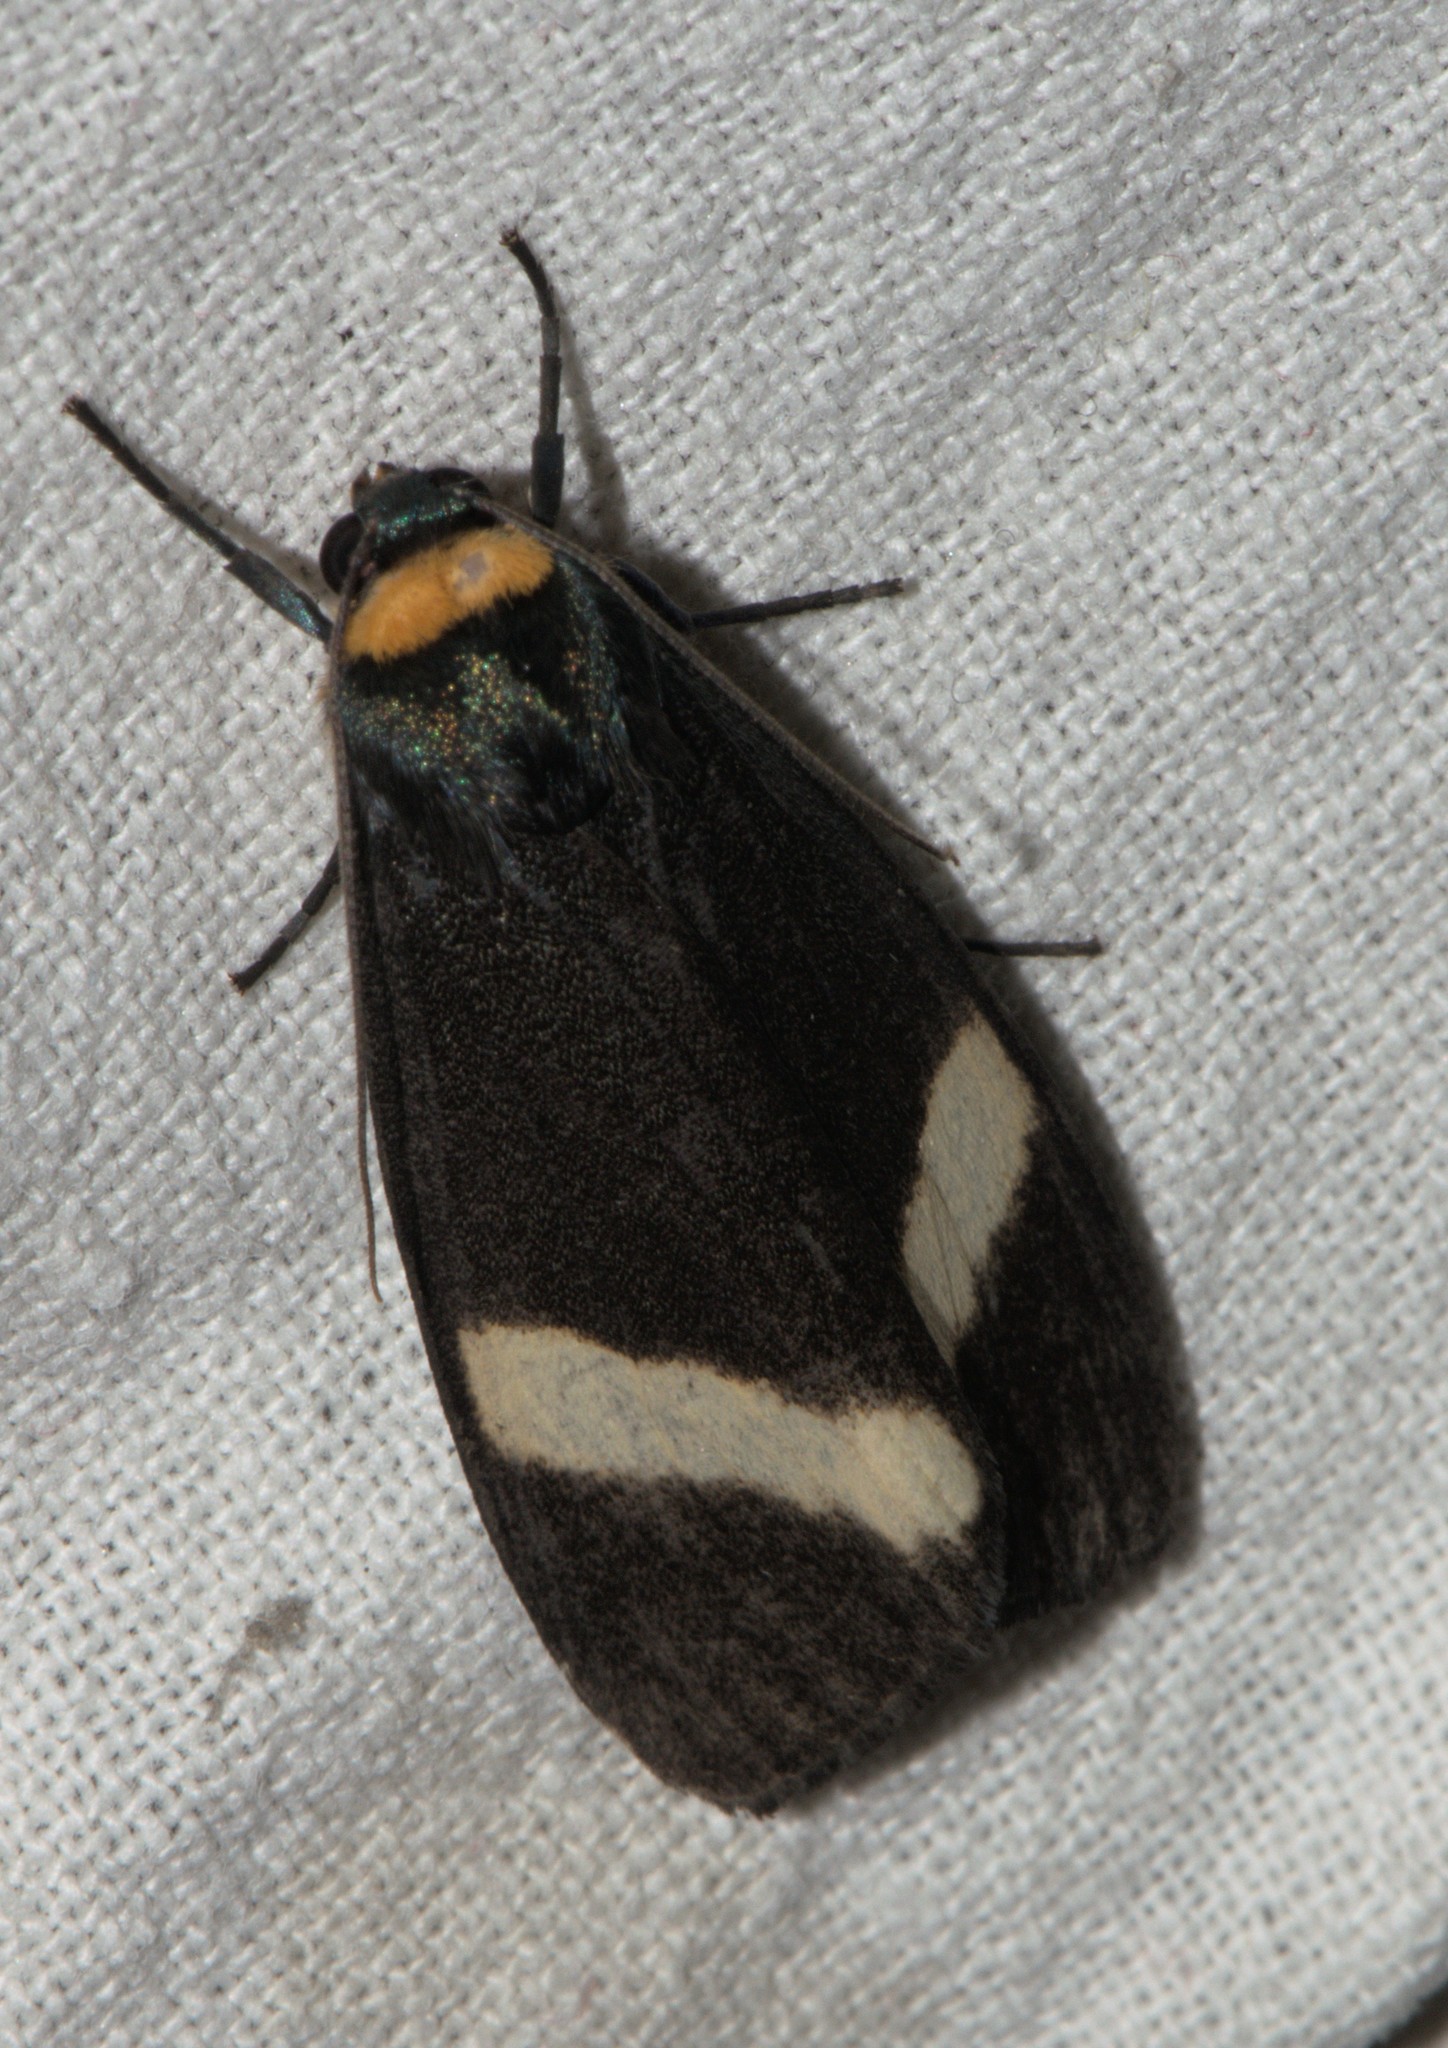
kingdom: Animalia
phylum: Arthropoda
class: Insecta
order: Lepidoptera
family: Erebidae
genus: Macrobrochis
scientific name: Macrobrochis albifascia
